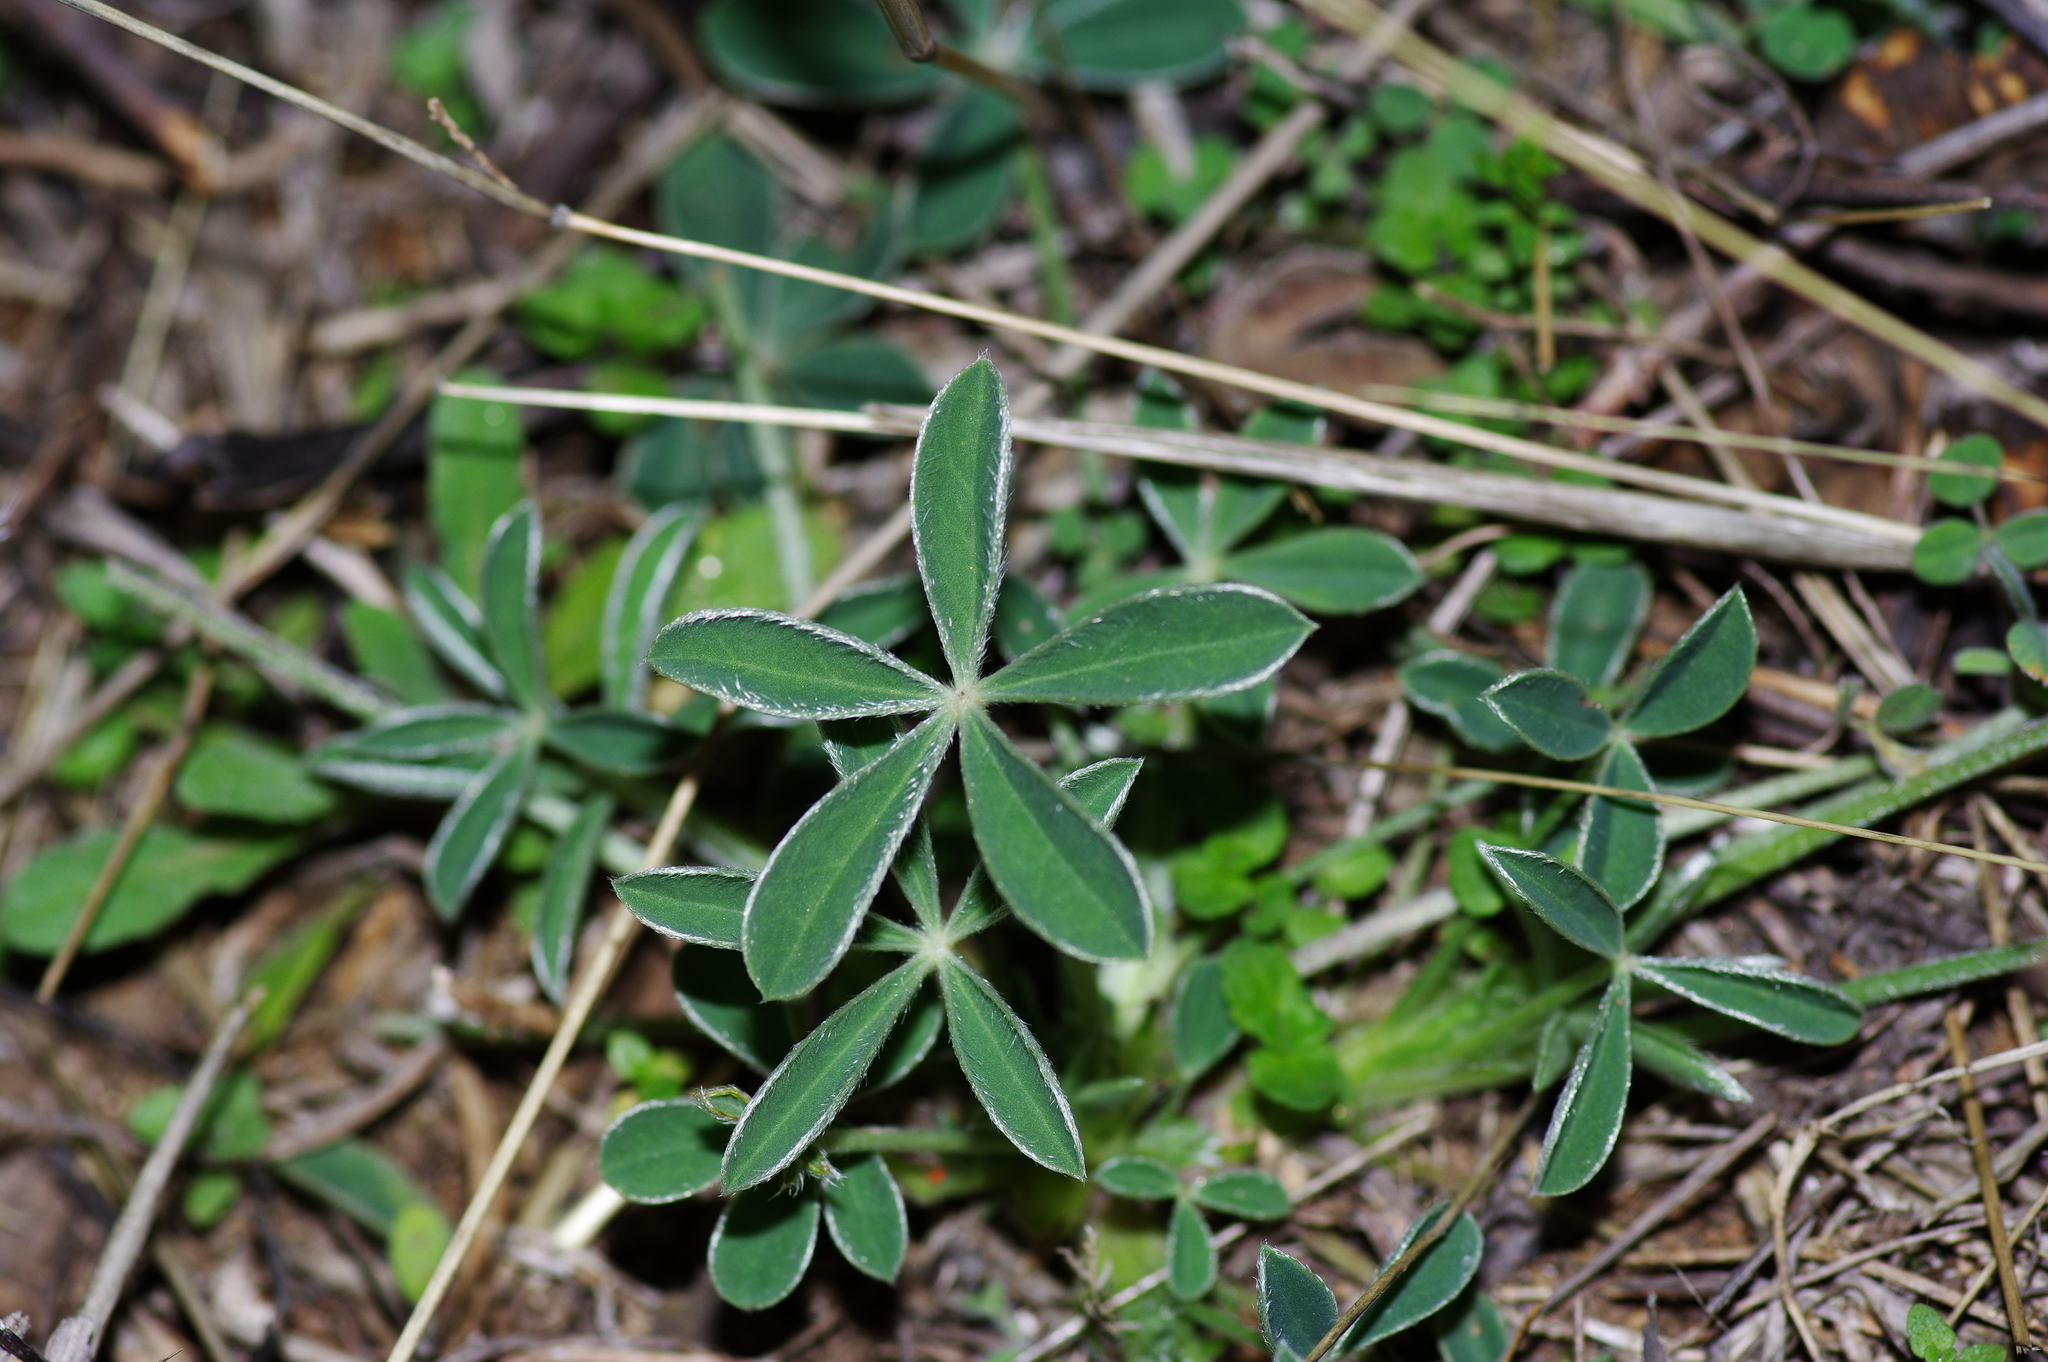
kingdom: Plantae
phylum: Tracheophyta
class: Magnoliopsida
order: Fabales
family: Fabaceae
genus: Lupinus
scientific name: Lupinus texensis
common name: Texas bluebonnet
